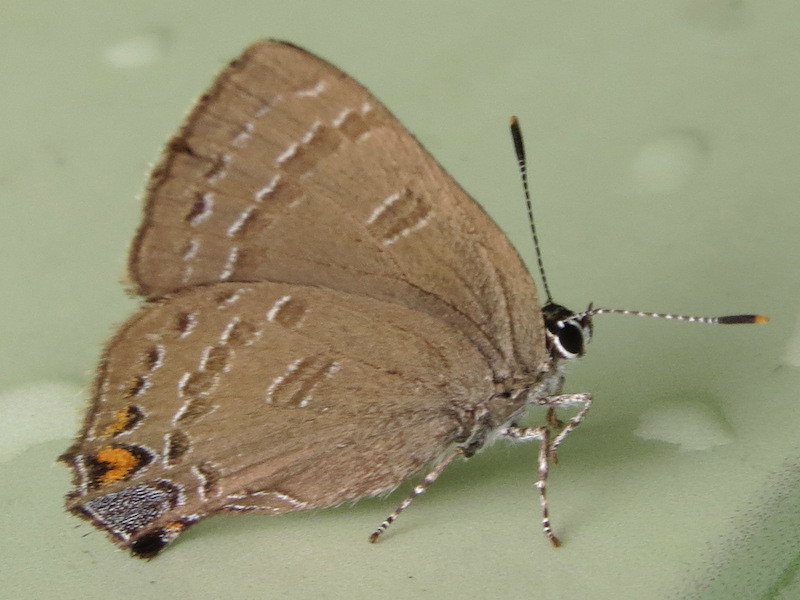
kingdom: Animalia
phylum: Arthropoda
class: Insecta
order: Lepidoptera
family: Lycaenidae
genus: Satyrium
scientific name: Satyrium calanus
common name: Banded hairstreak
